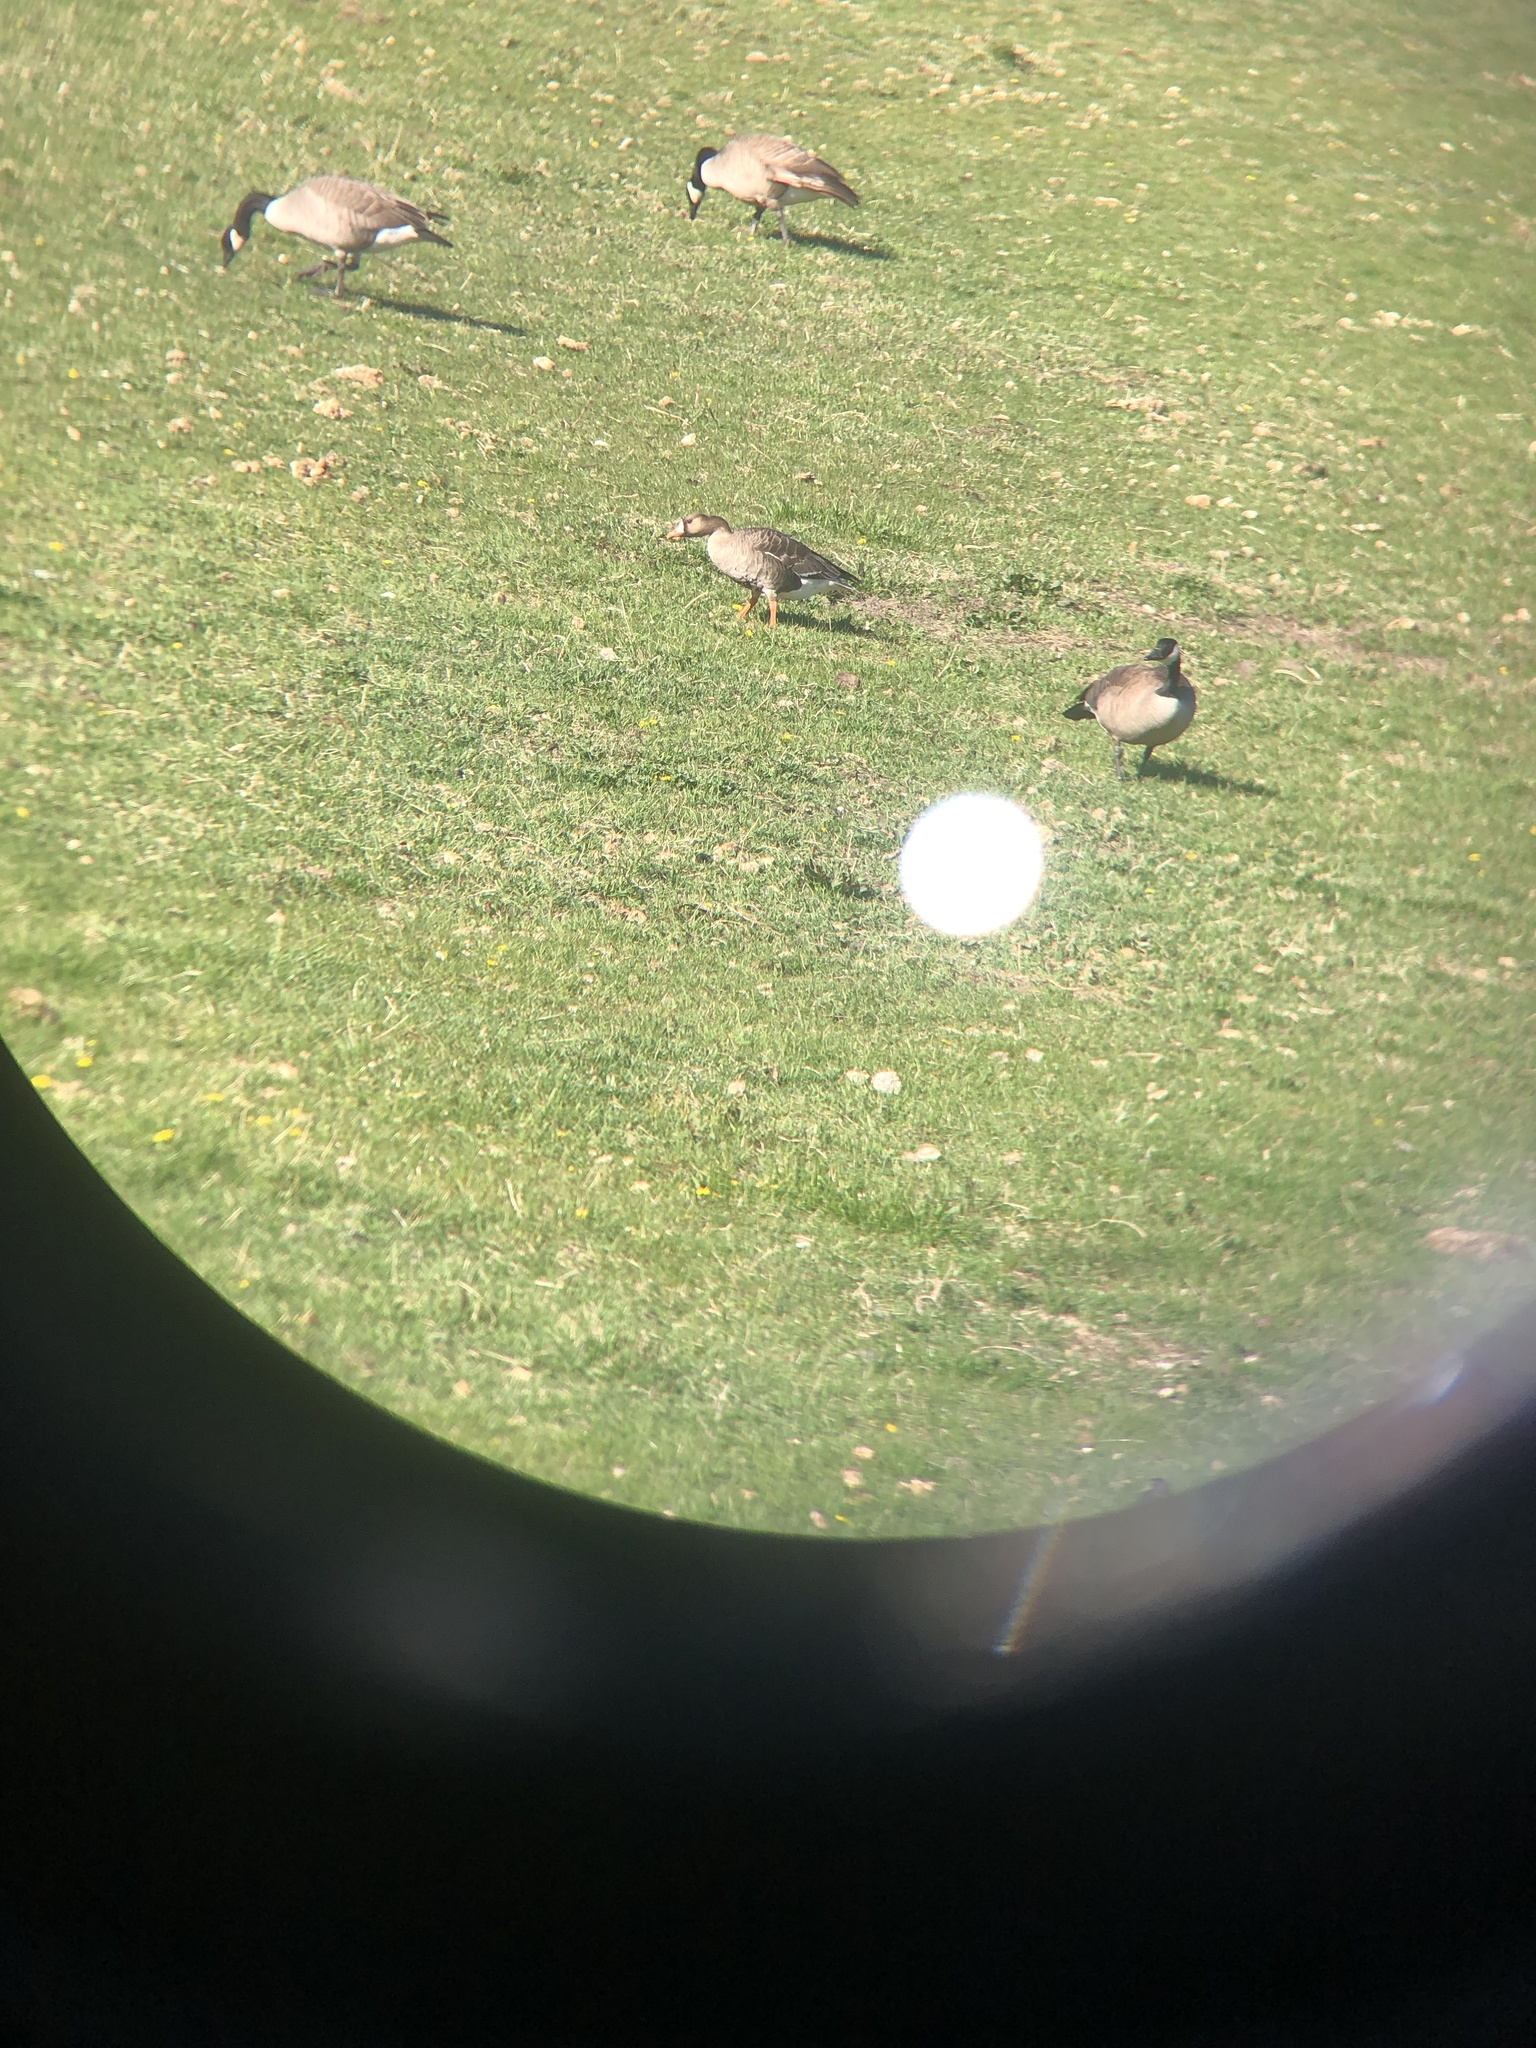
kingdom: Animalia
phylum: Chordata
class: Aves
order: Anseriformes
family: Anatidae
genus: Anser
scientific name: Anser albifrons
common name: Greater white-fronted goose
